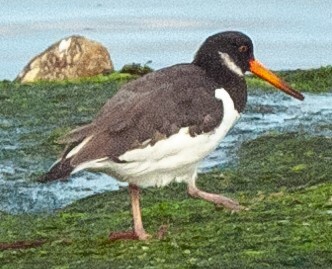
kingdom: Animalia
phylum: Chordata
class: Aves
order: Charadriiformes
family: Haematopodidae
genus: Haematopus
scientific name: Haematopus ostralegus
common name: Eurasian oystercatcher
